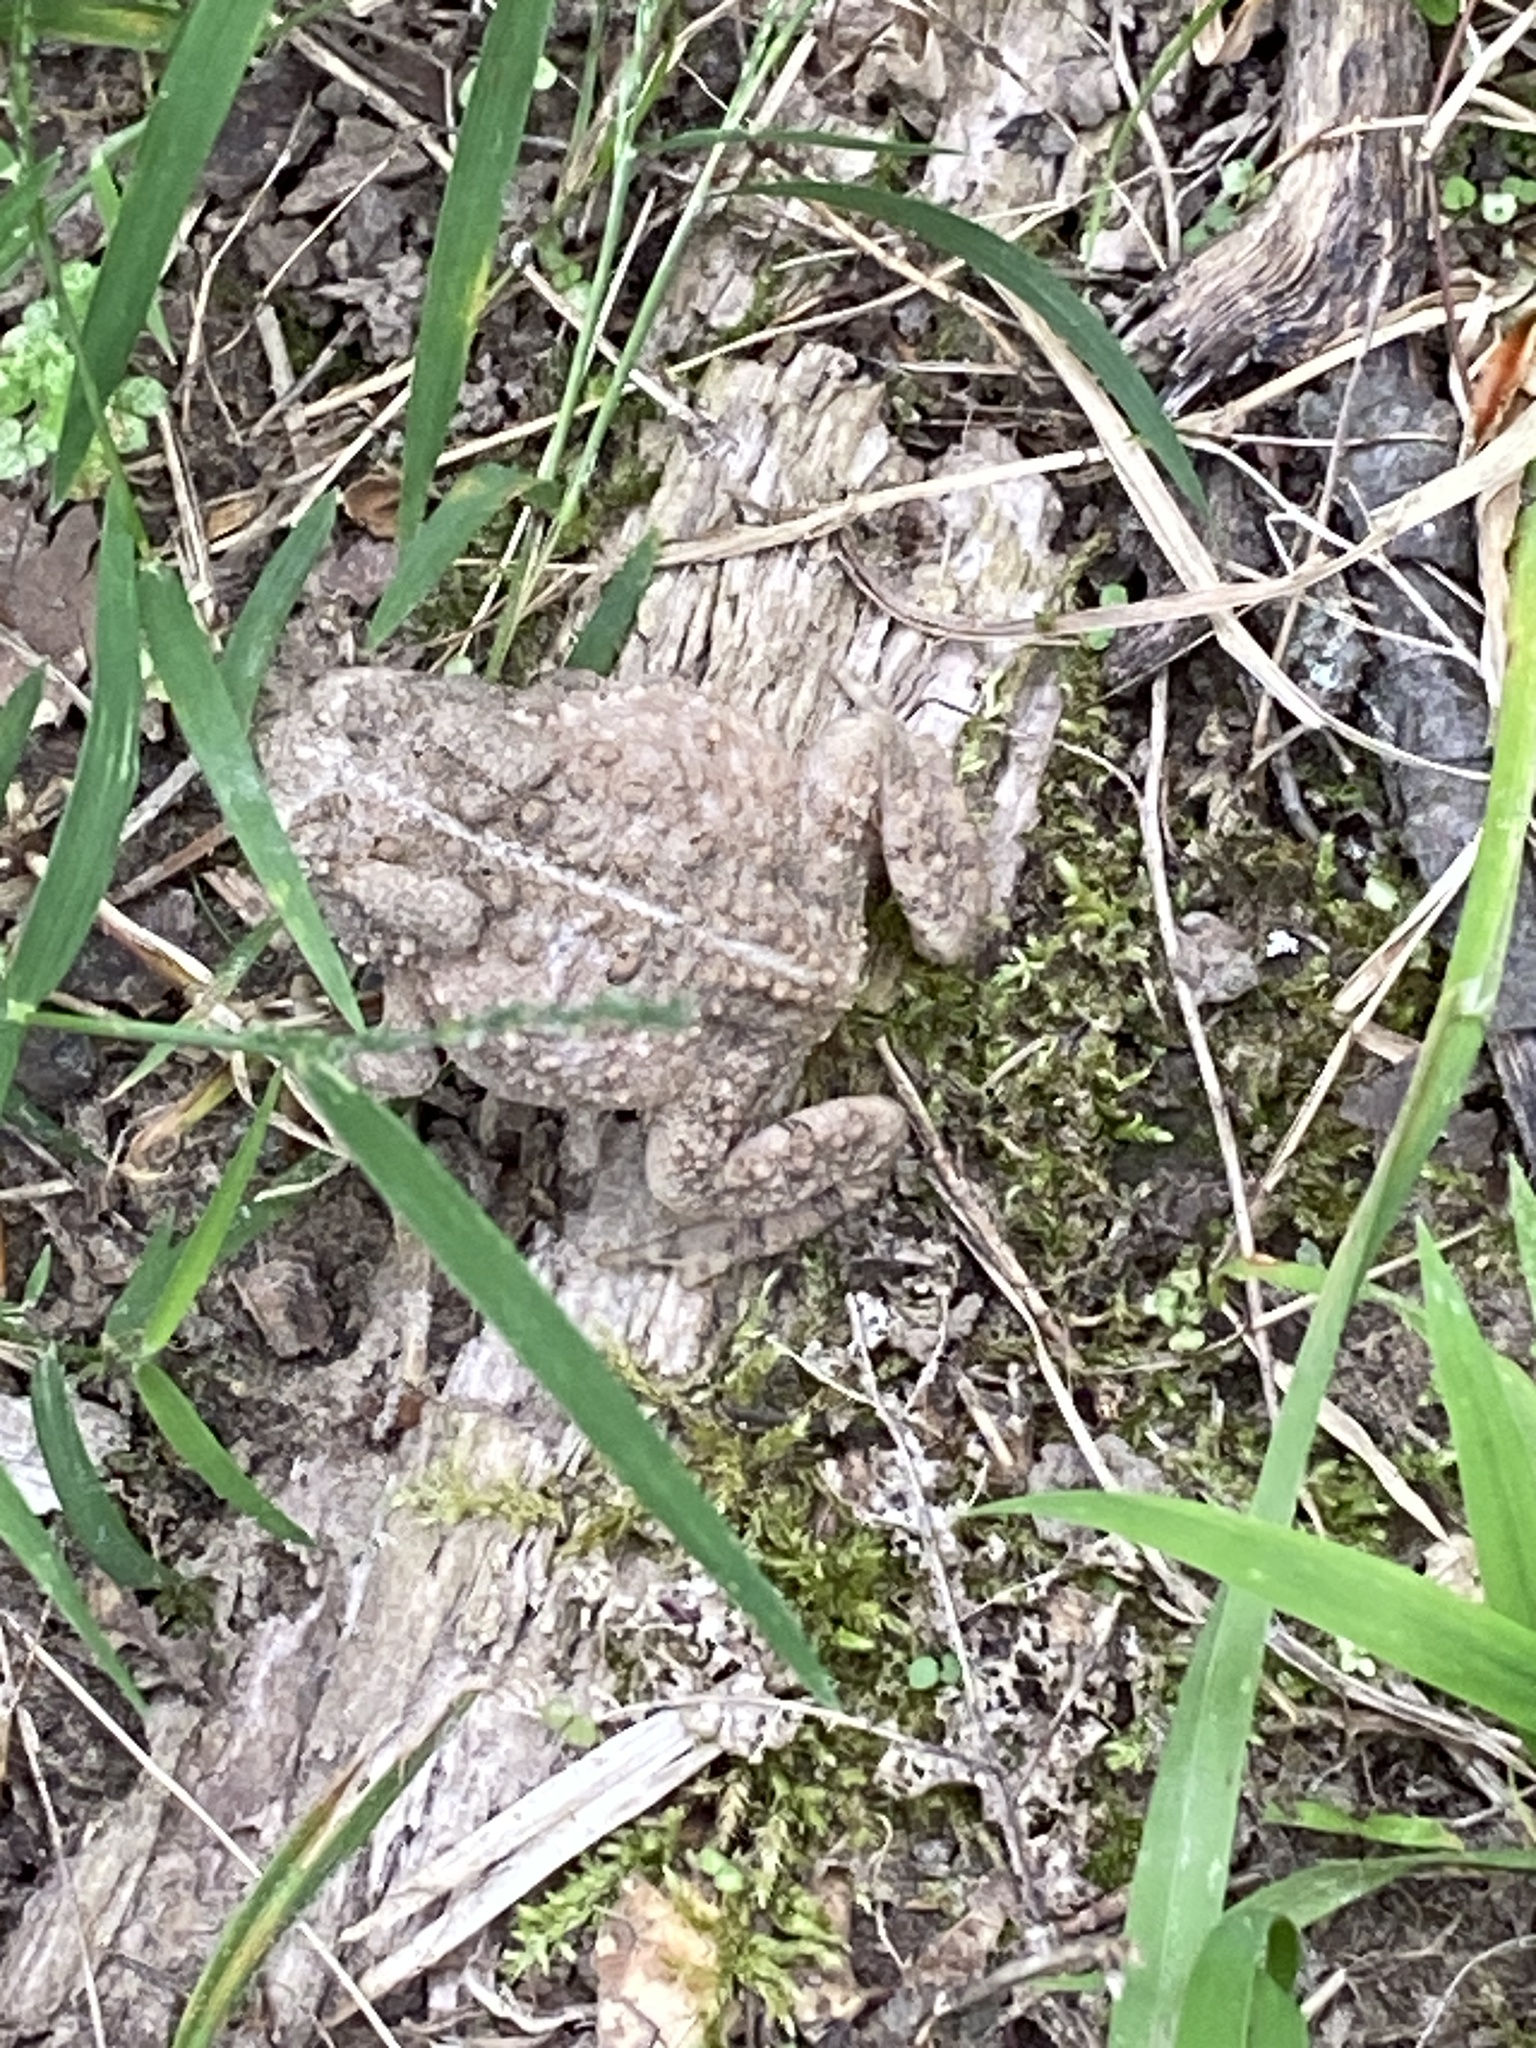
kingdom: Animalia
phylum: Chordata
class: Amphibia
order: Anura
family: Bufonidae
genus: Anaxyrus
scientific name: Anaxyrus americanus
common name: American toad
